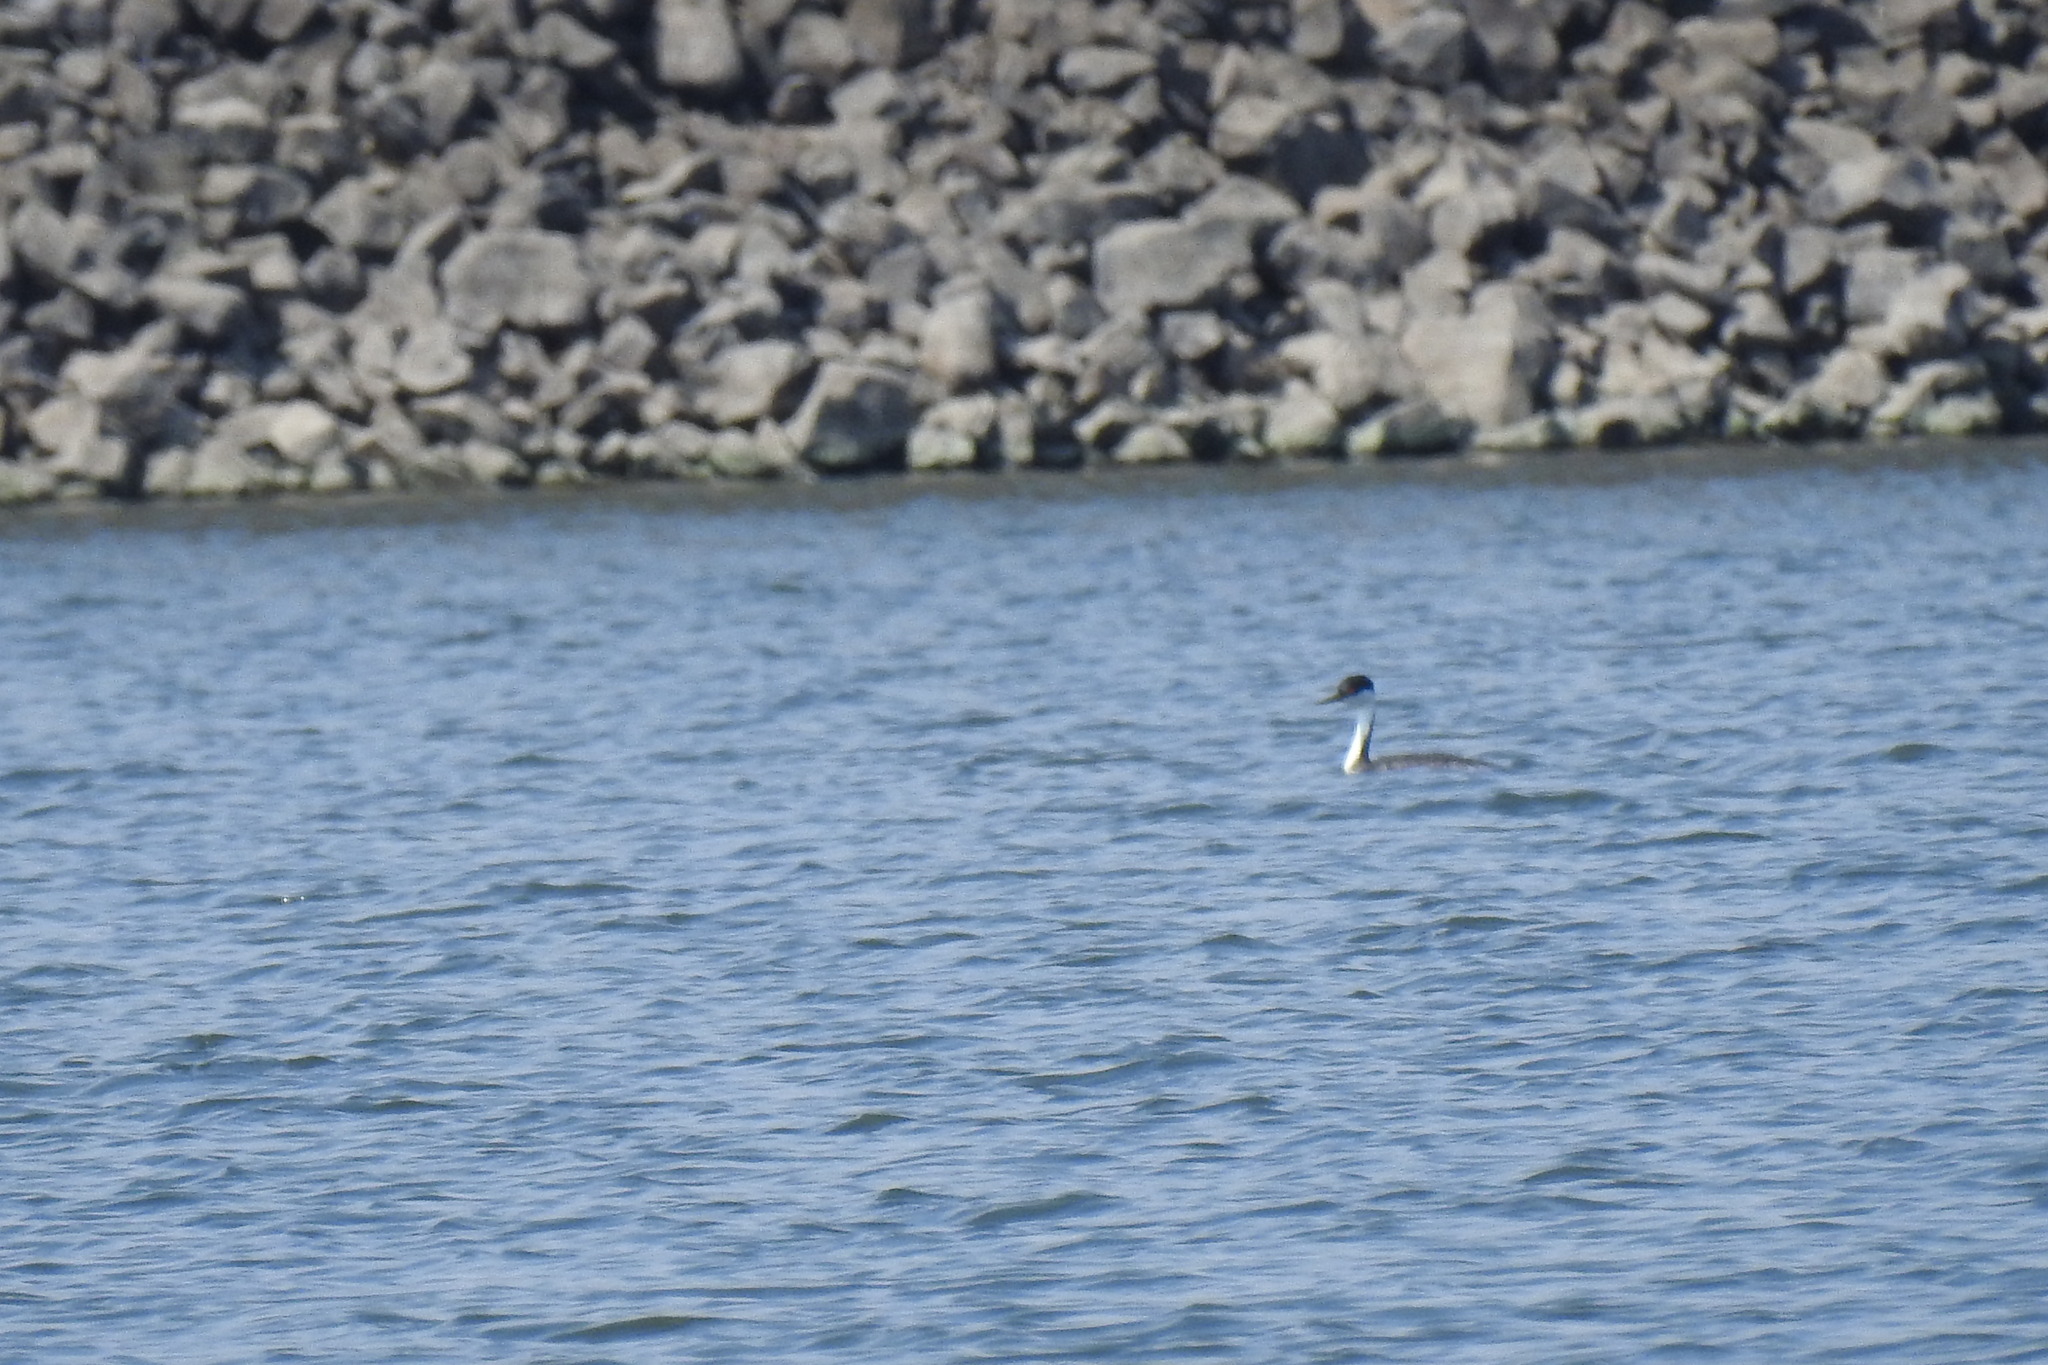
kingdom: Animalia
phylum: Chordata
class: Aves
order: Podicipediformes
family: Podicipedidae
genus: Aechmophorus
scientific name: Aechmophorus occidentalis
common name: Western grebe
